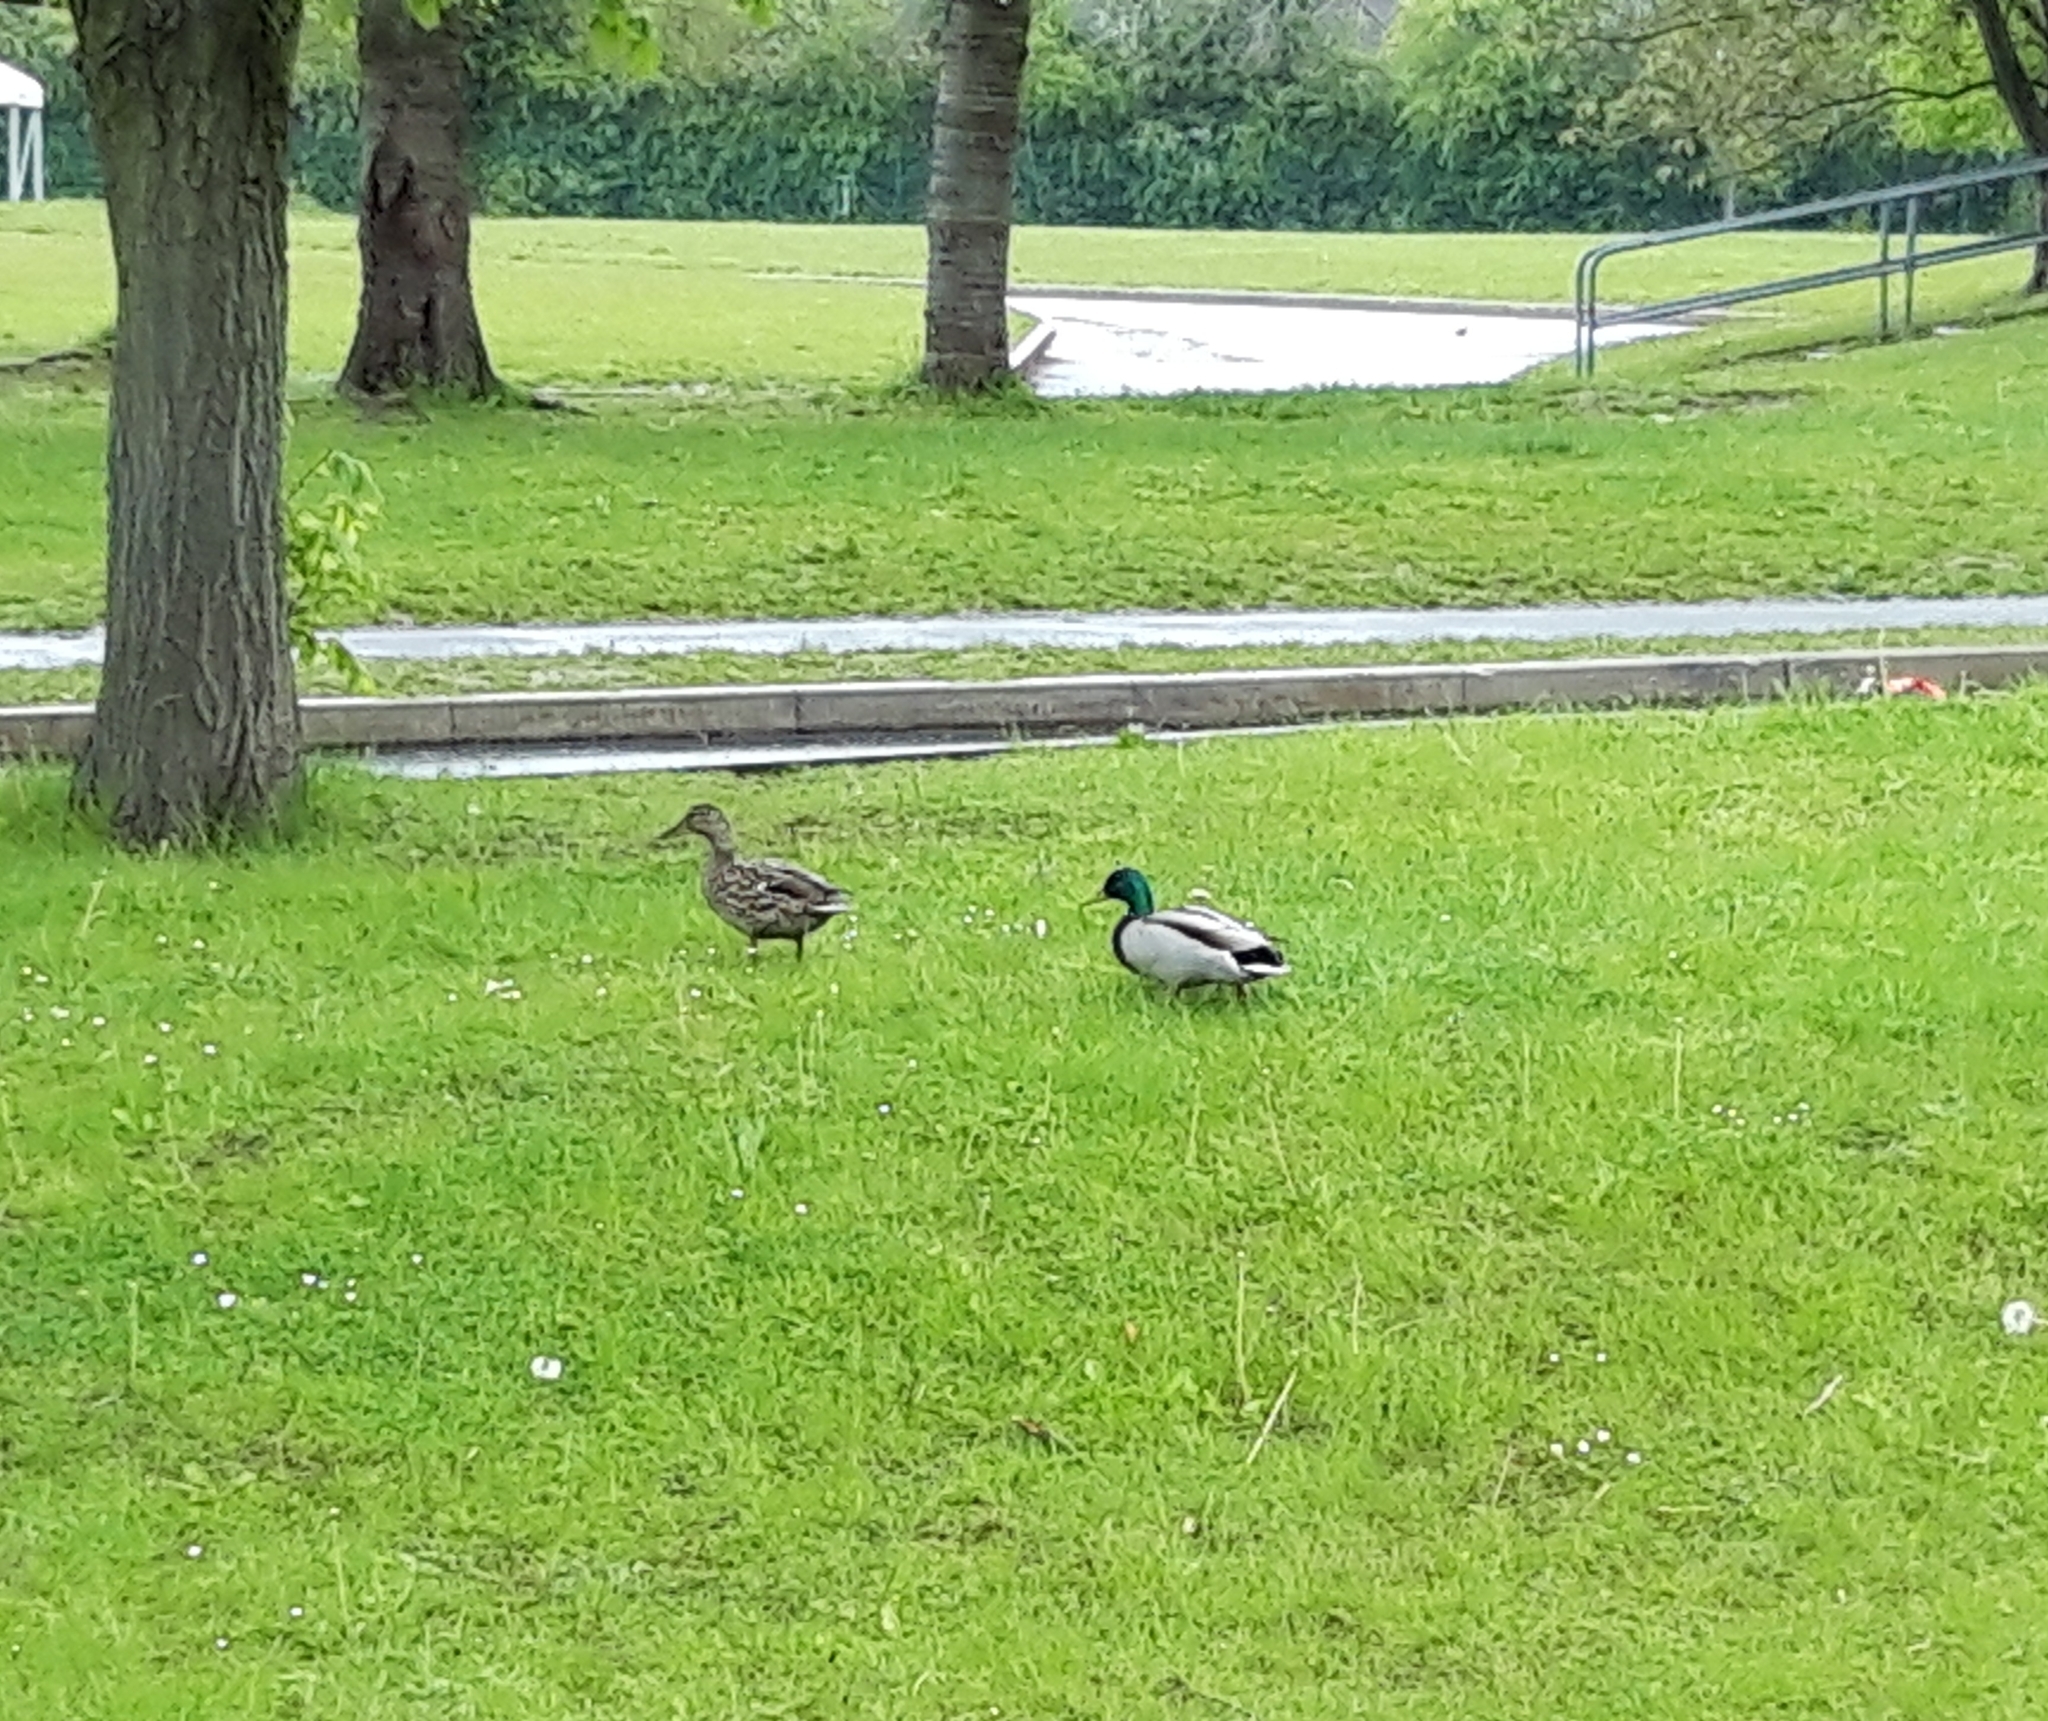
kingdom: Animalia
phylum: Chordata
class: Aves
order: Anseriformes
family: Anatidae
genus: Anas
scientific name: Anas platyrhynchos
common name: Mallard
